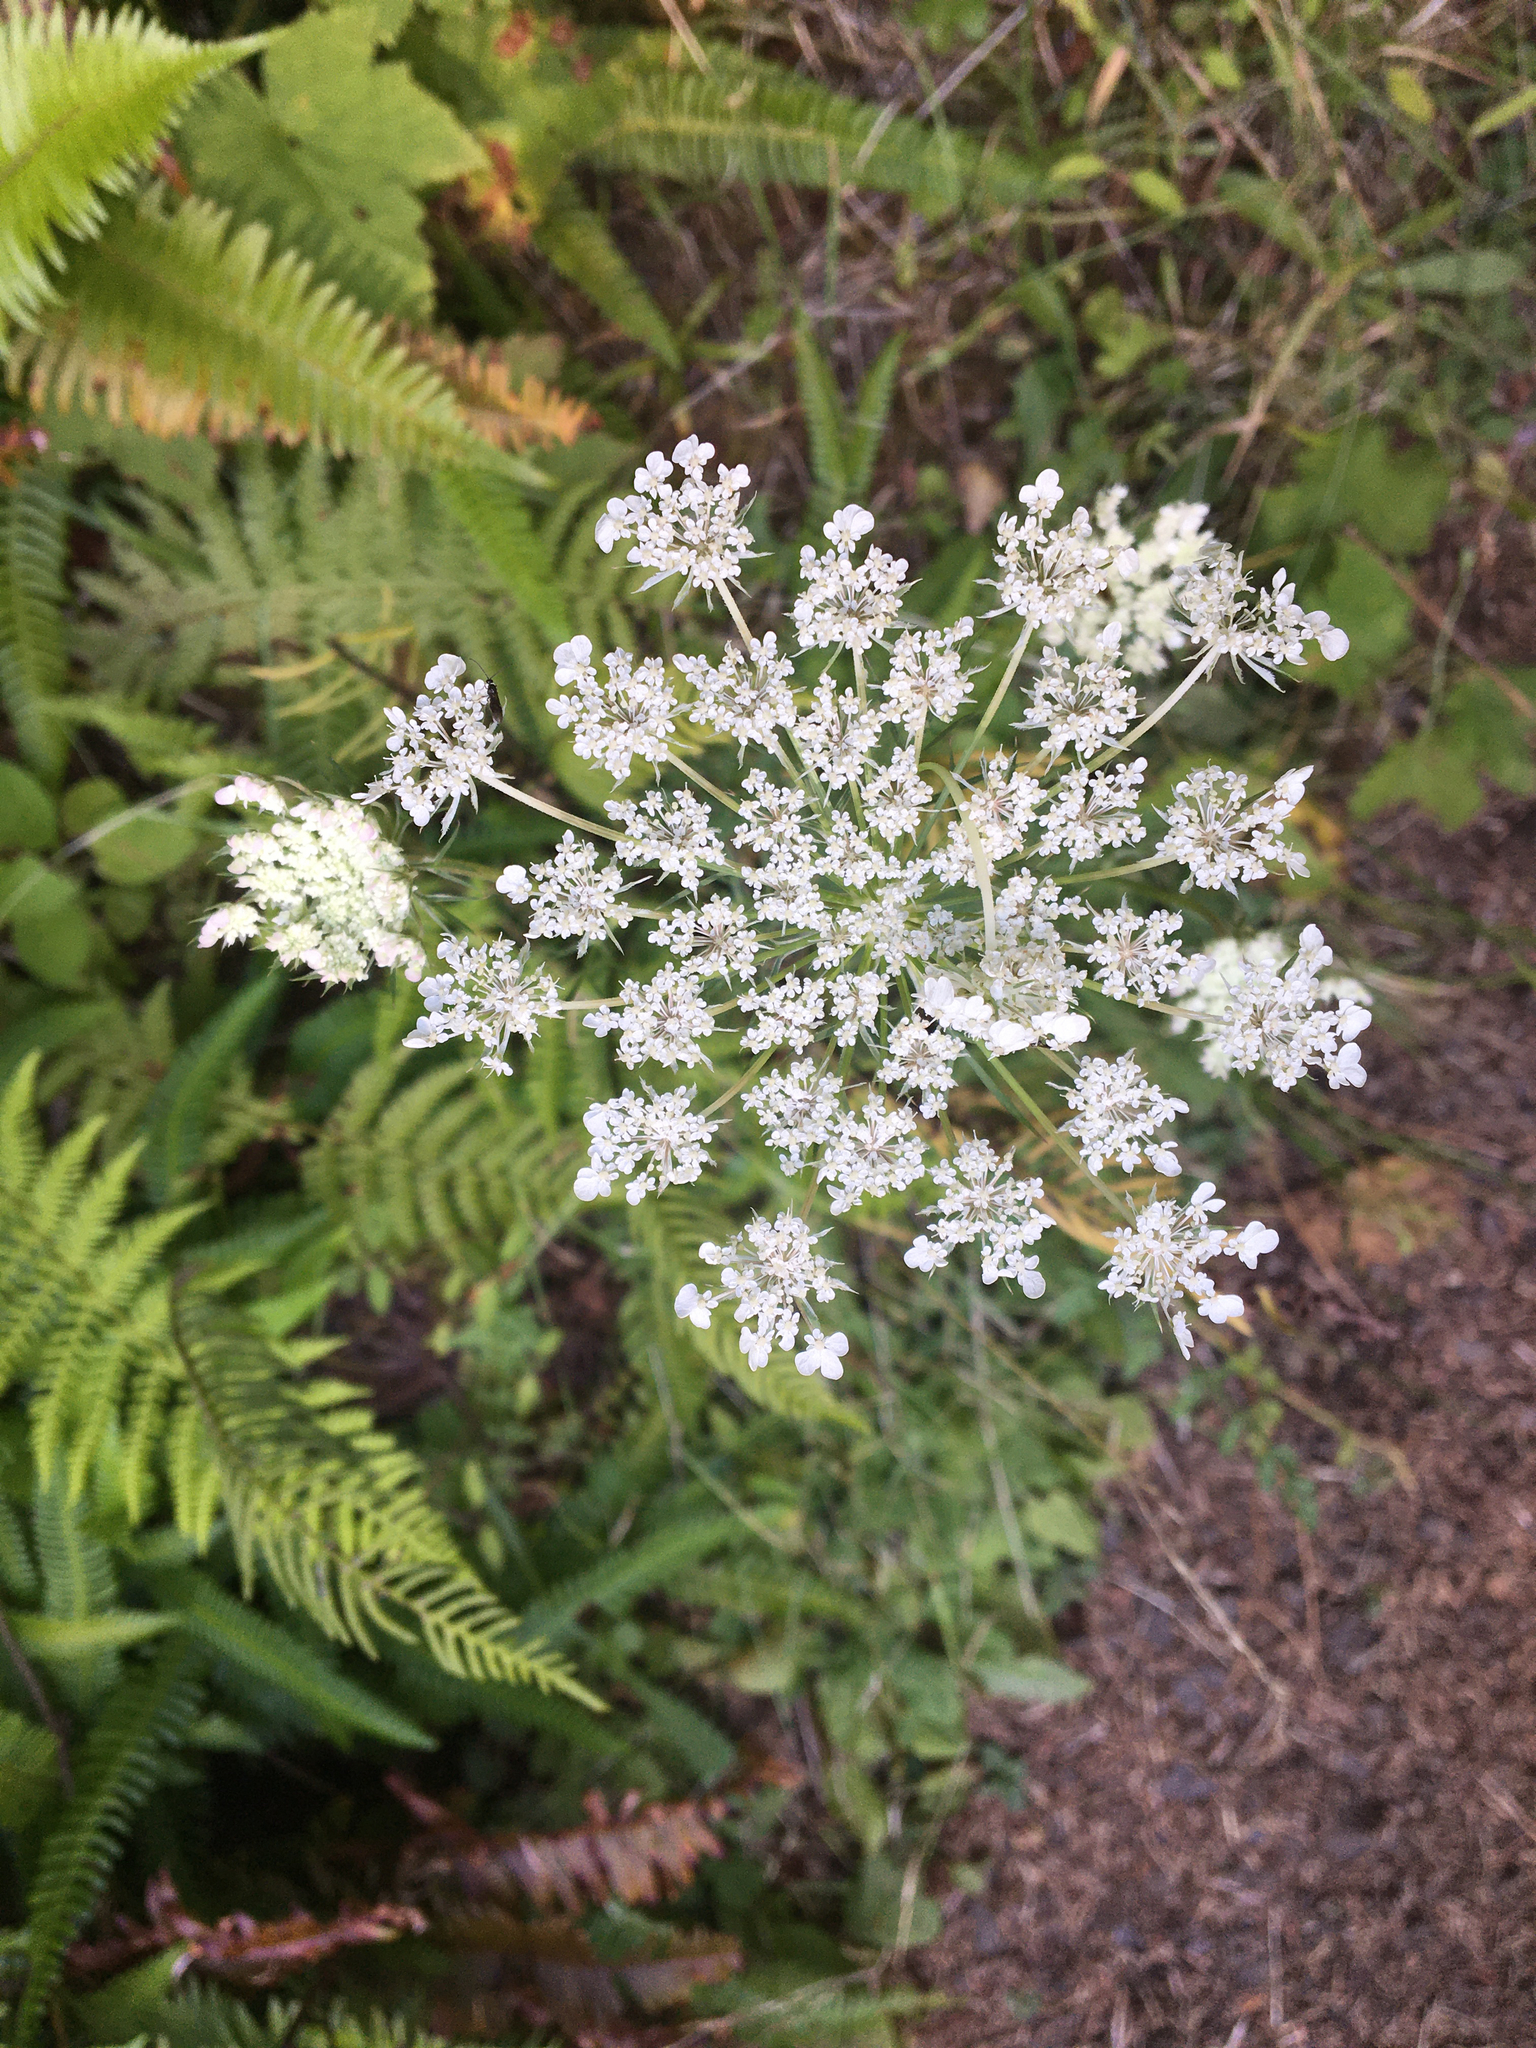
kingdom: Plantae
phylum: Tracheophyta
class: Magnoliopsida
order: Apiales
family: Apiaceae
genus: Daucus
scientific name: Daucus carota
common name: Wild carrot
